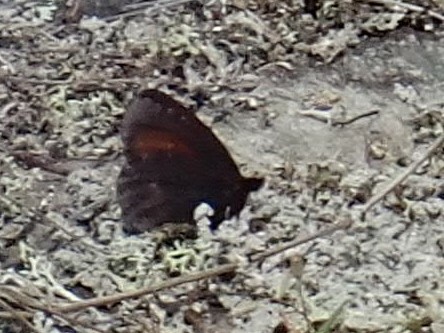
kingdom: Animalia
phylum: Arthropoda
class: Insecta
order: Lepidoptera
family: Nymphalidae
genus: Erebia
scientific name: Erebia discoidalis
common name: Red-disked alpine
